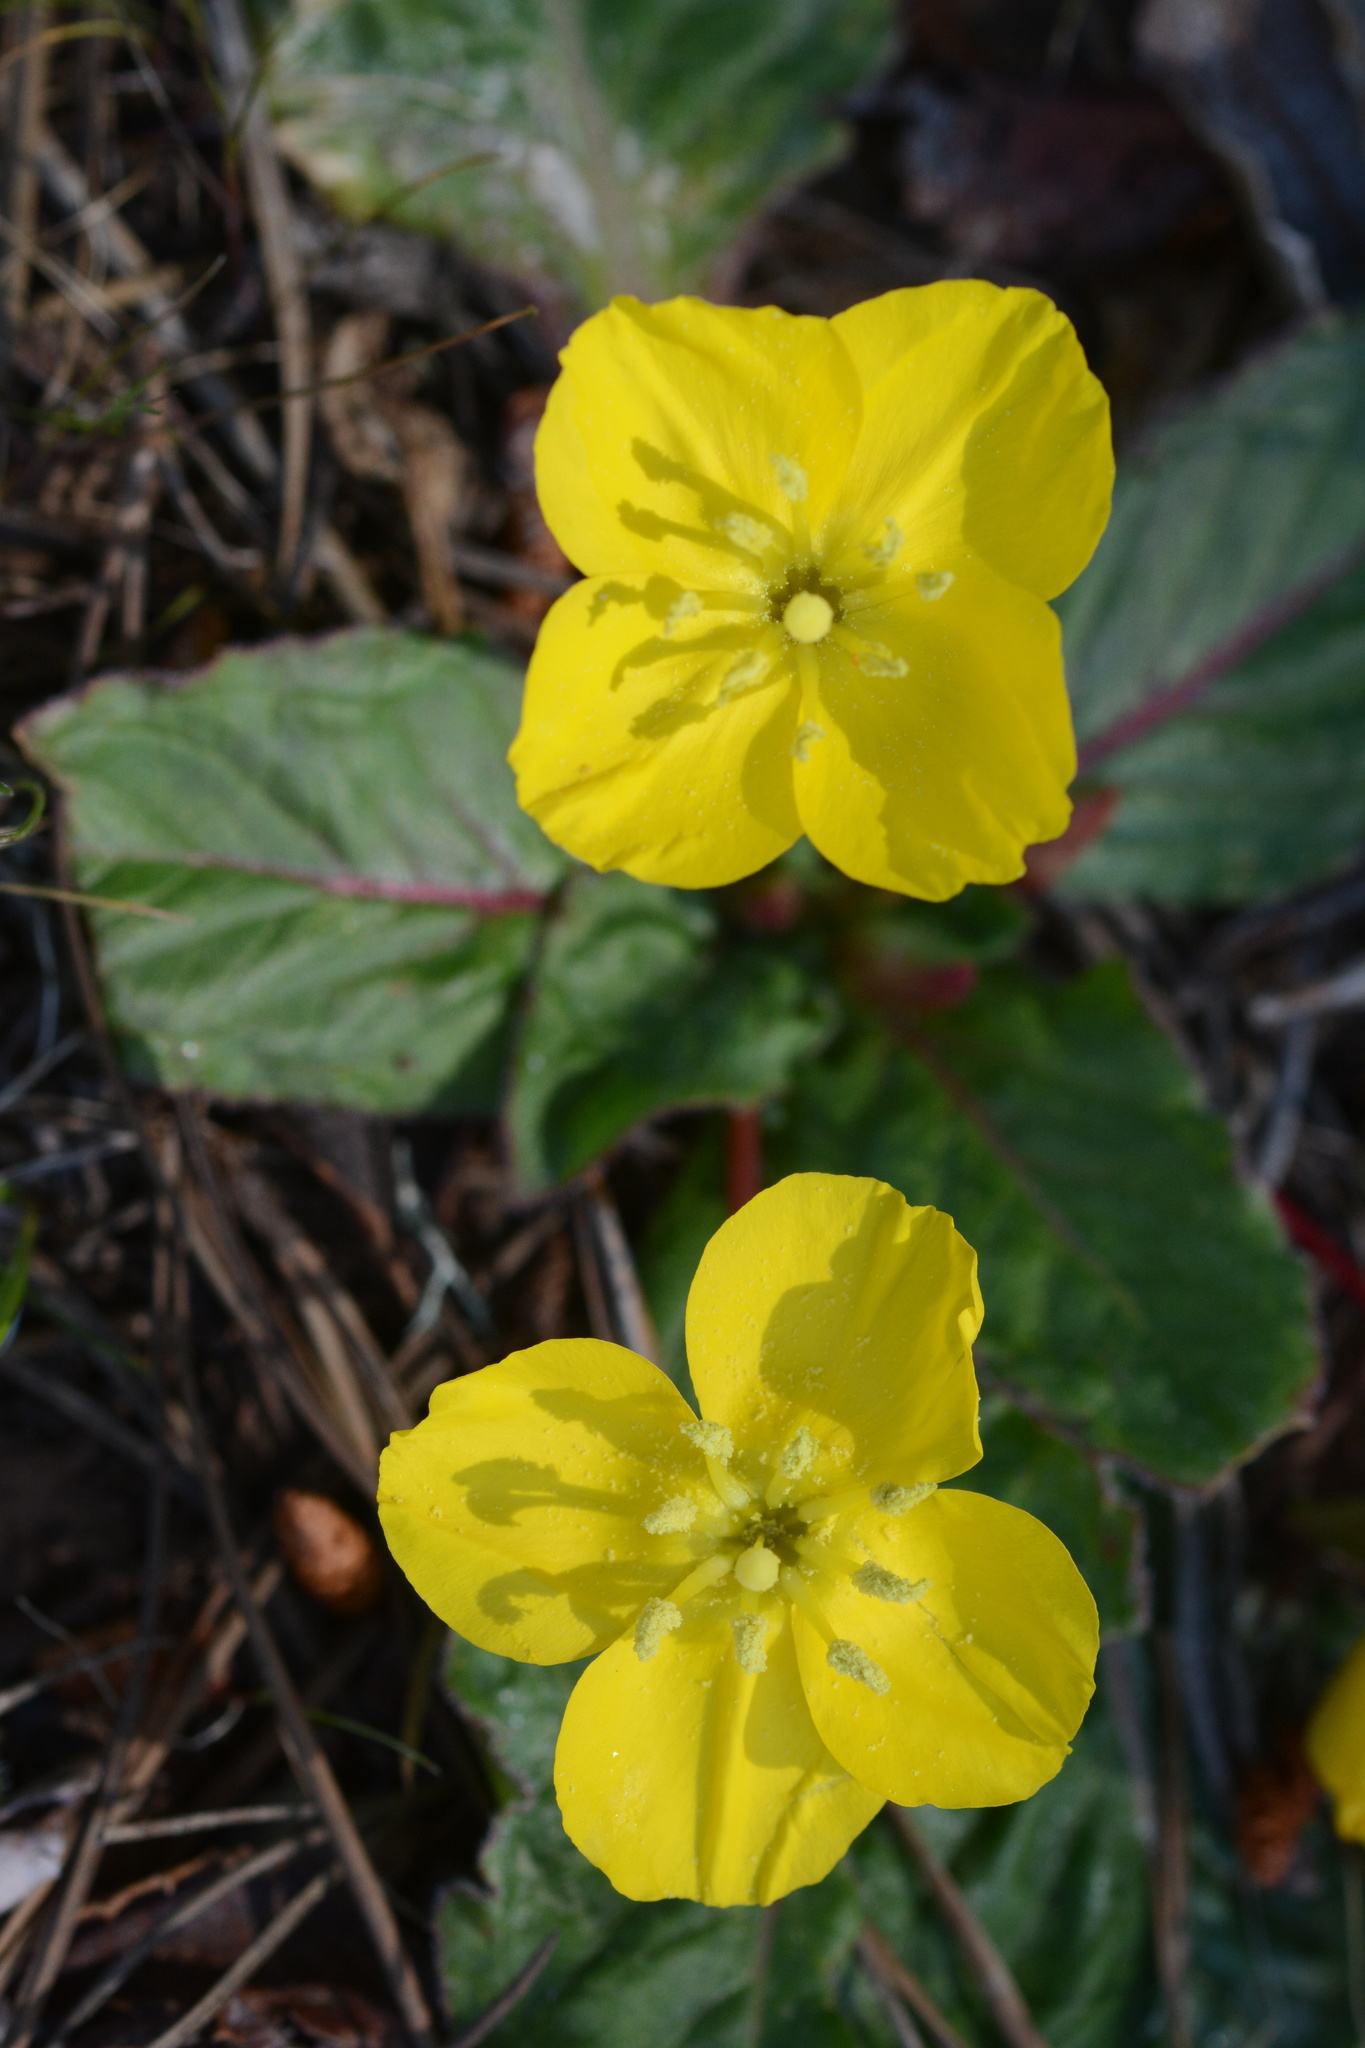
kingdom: Plantae
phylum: Tracheophyta
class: Magnoliopsida
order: Myrtales
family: Onagraceae
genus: Taraxia
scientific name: Taraxia ovata
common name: Goldeneggs
